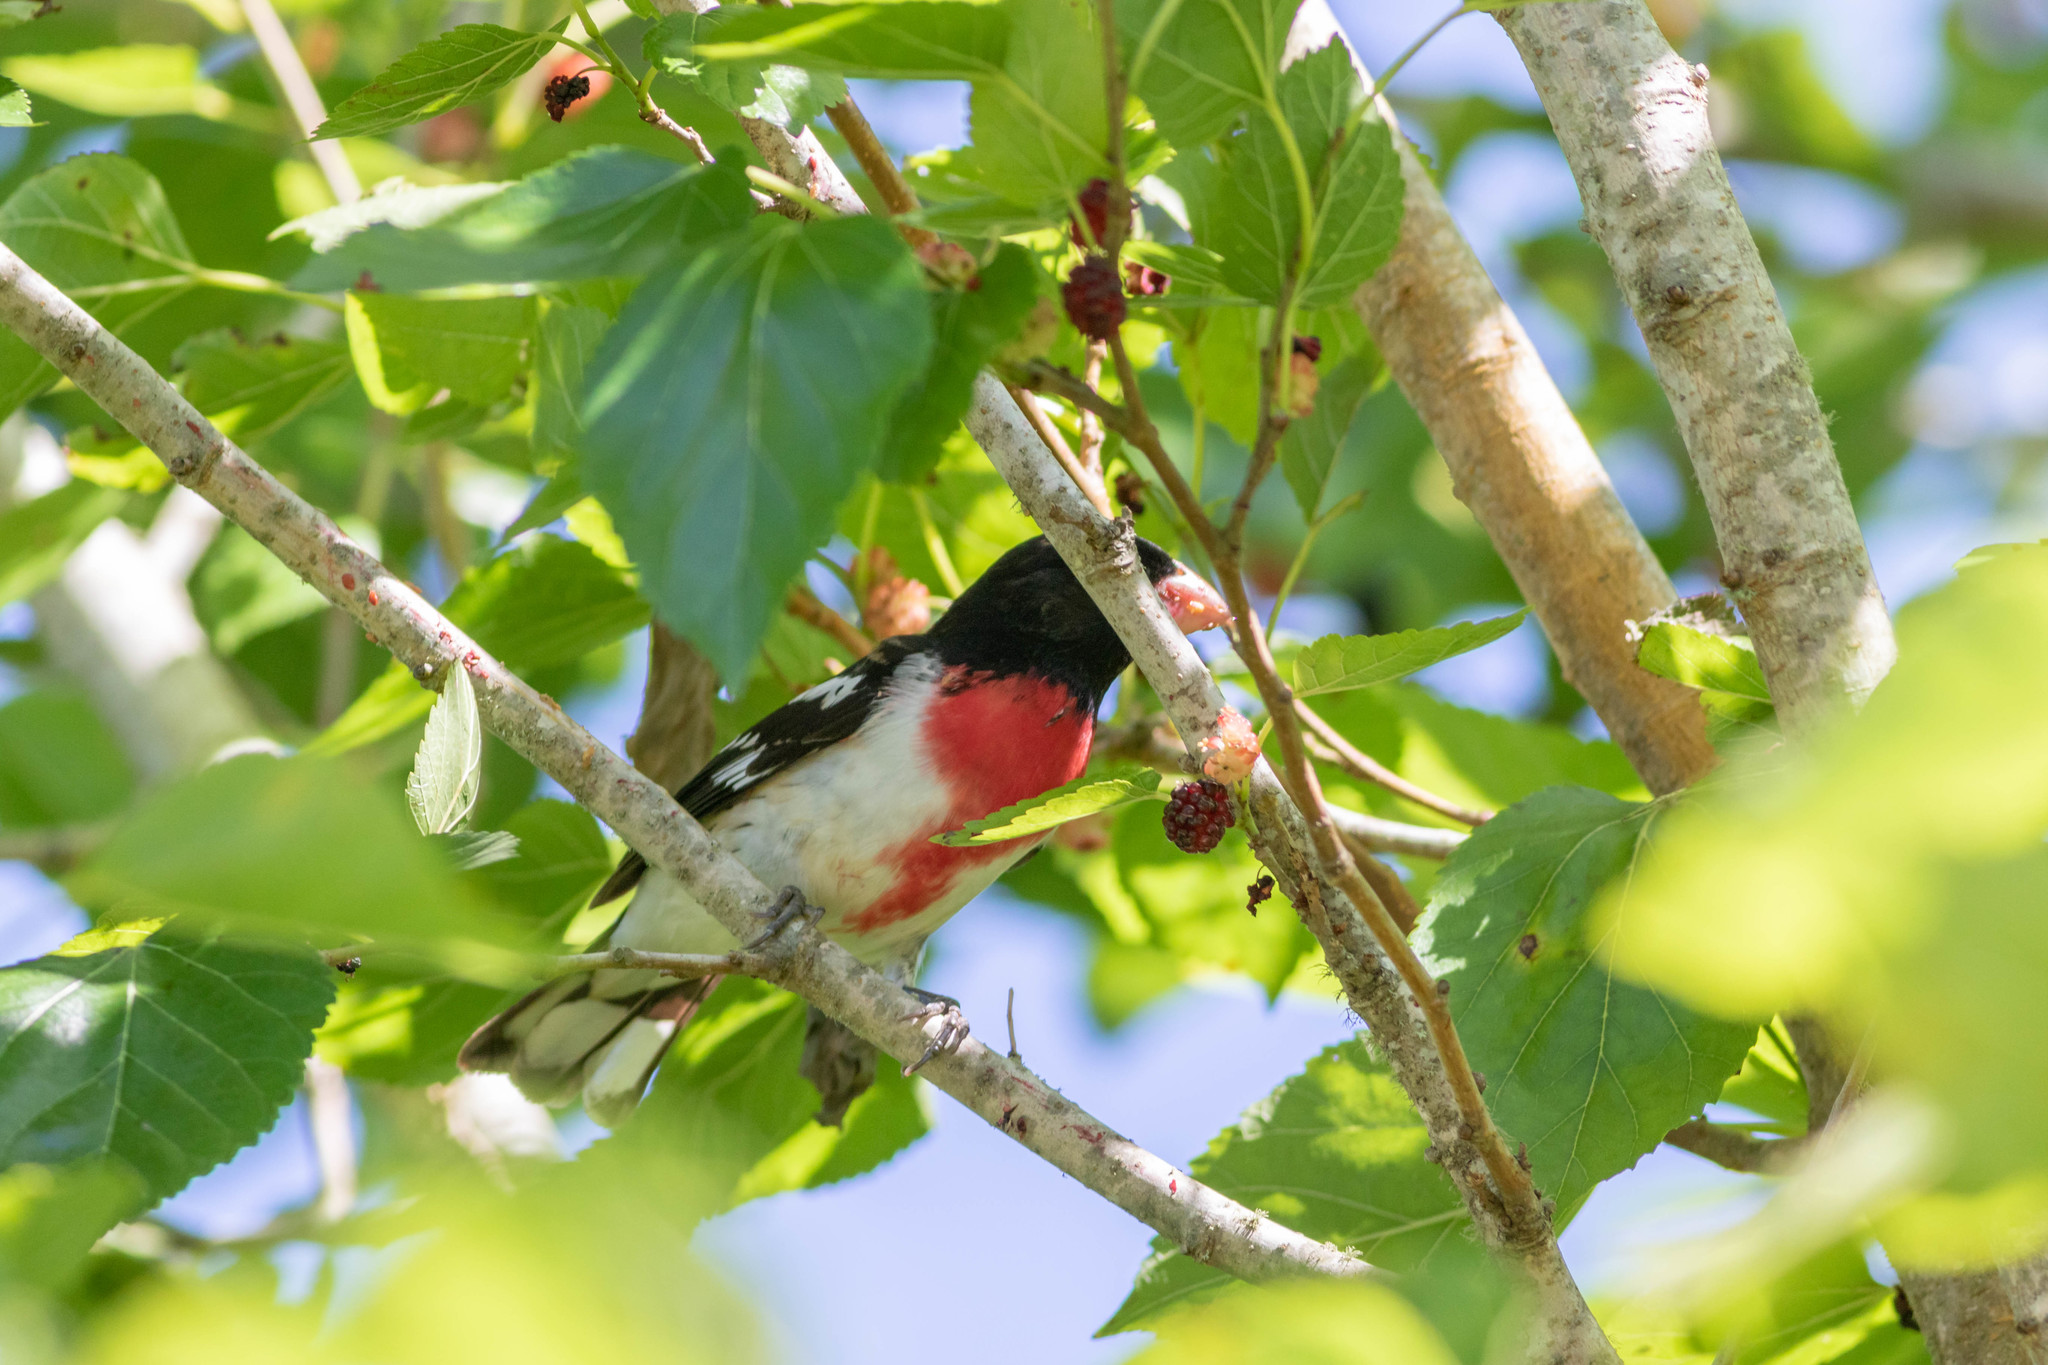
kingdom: Animalia
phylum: Chordata
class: Aves
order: Passeriformes
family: Cardinalidae
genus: Pheucticus
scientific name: Pheucticus ludovicianus
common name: Rose-breasted grosbeak
